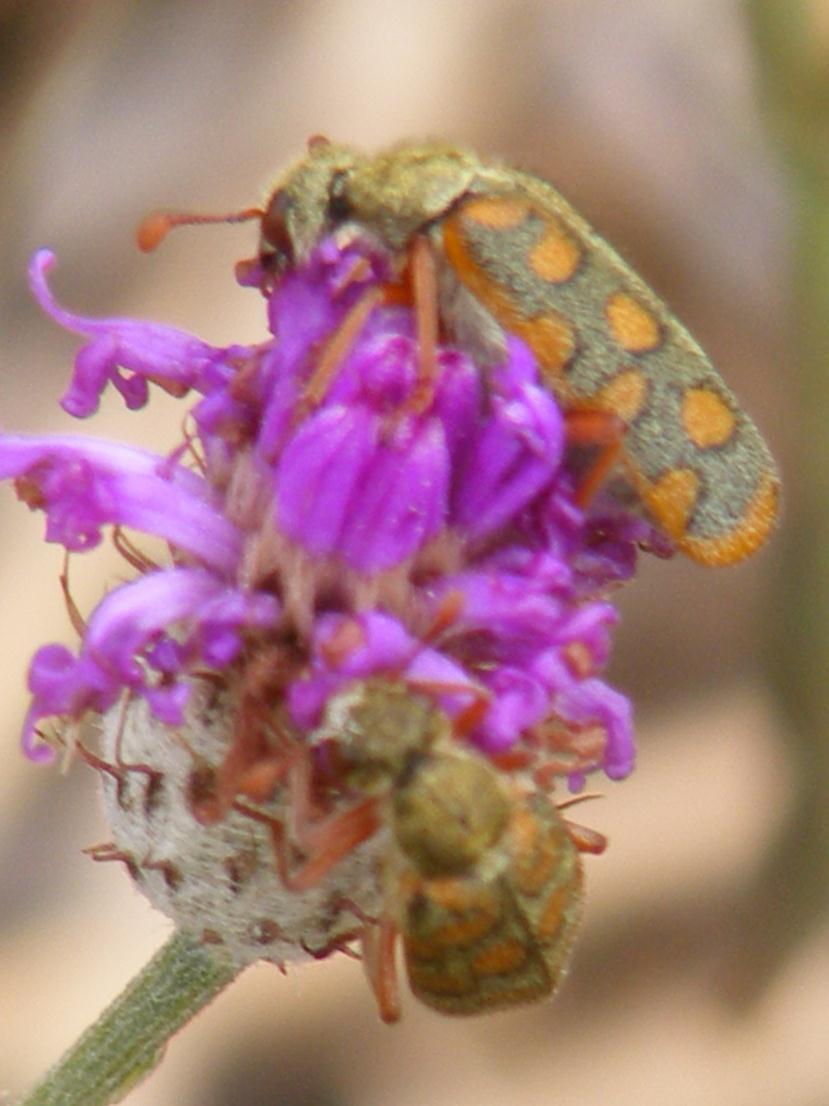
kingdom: Animalia
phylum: Arthropoda
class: Insecta
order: Coleoptera
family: Meloidae
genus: Hycleus
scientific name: Hycleus surcoufi
